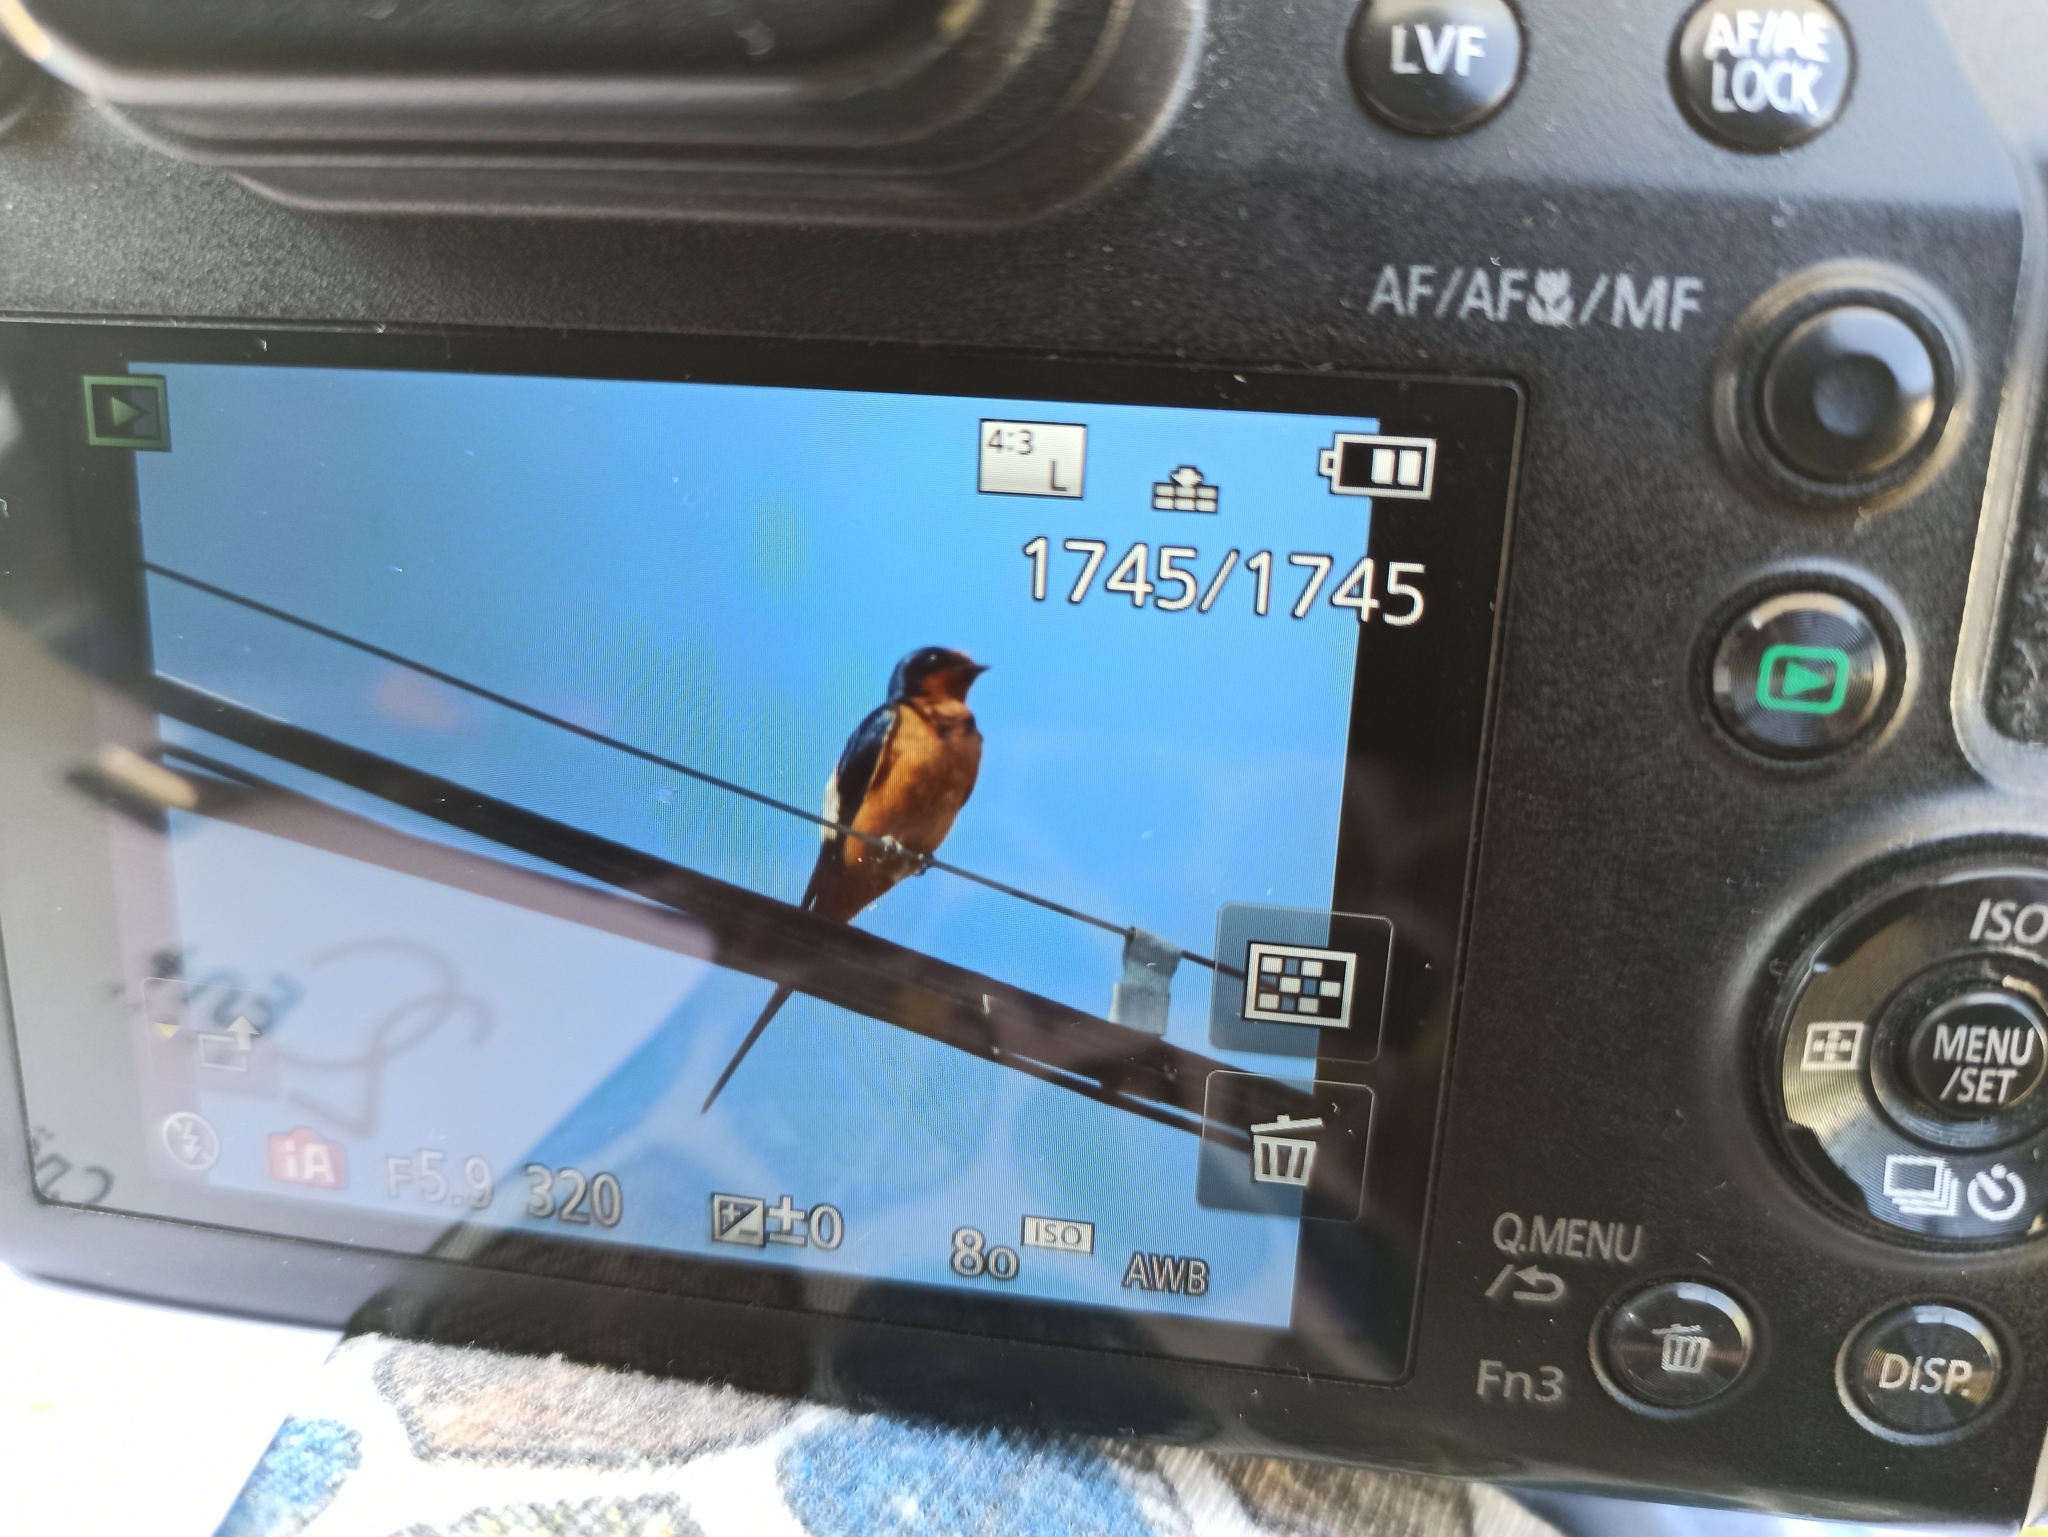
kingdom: Animalia
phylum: Chordata
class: Aves
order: Passeriformes
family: Hirundinidae
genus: Hirundo
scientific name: Hirundo rustica
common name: Barn swallow
